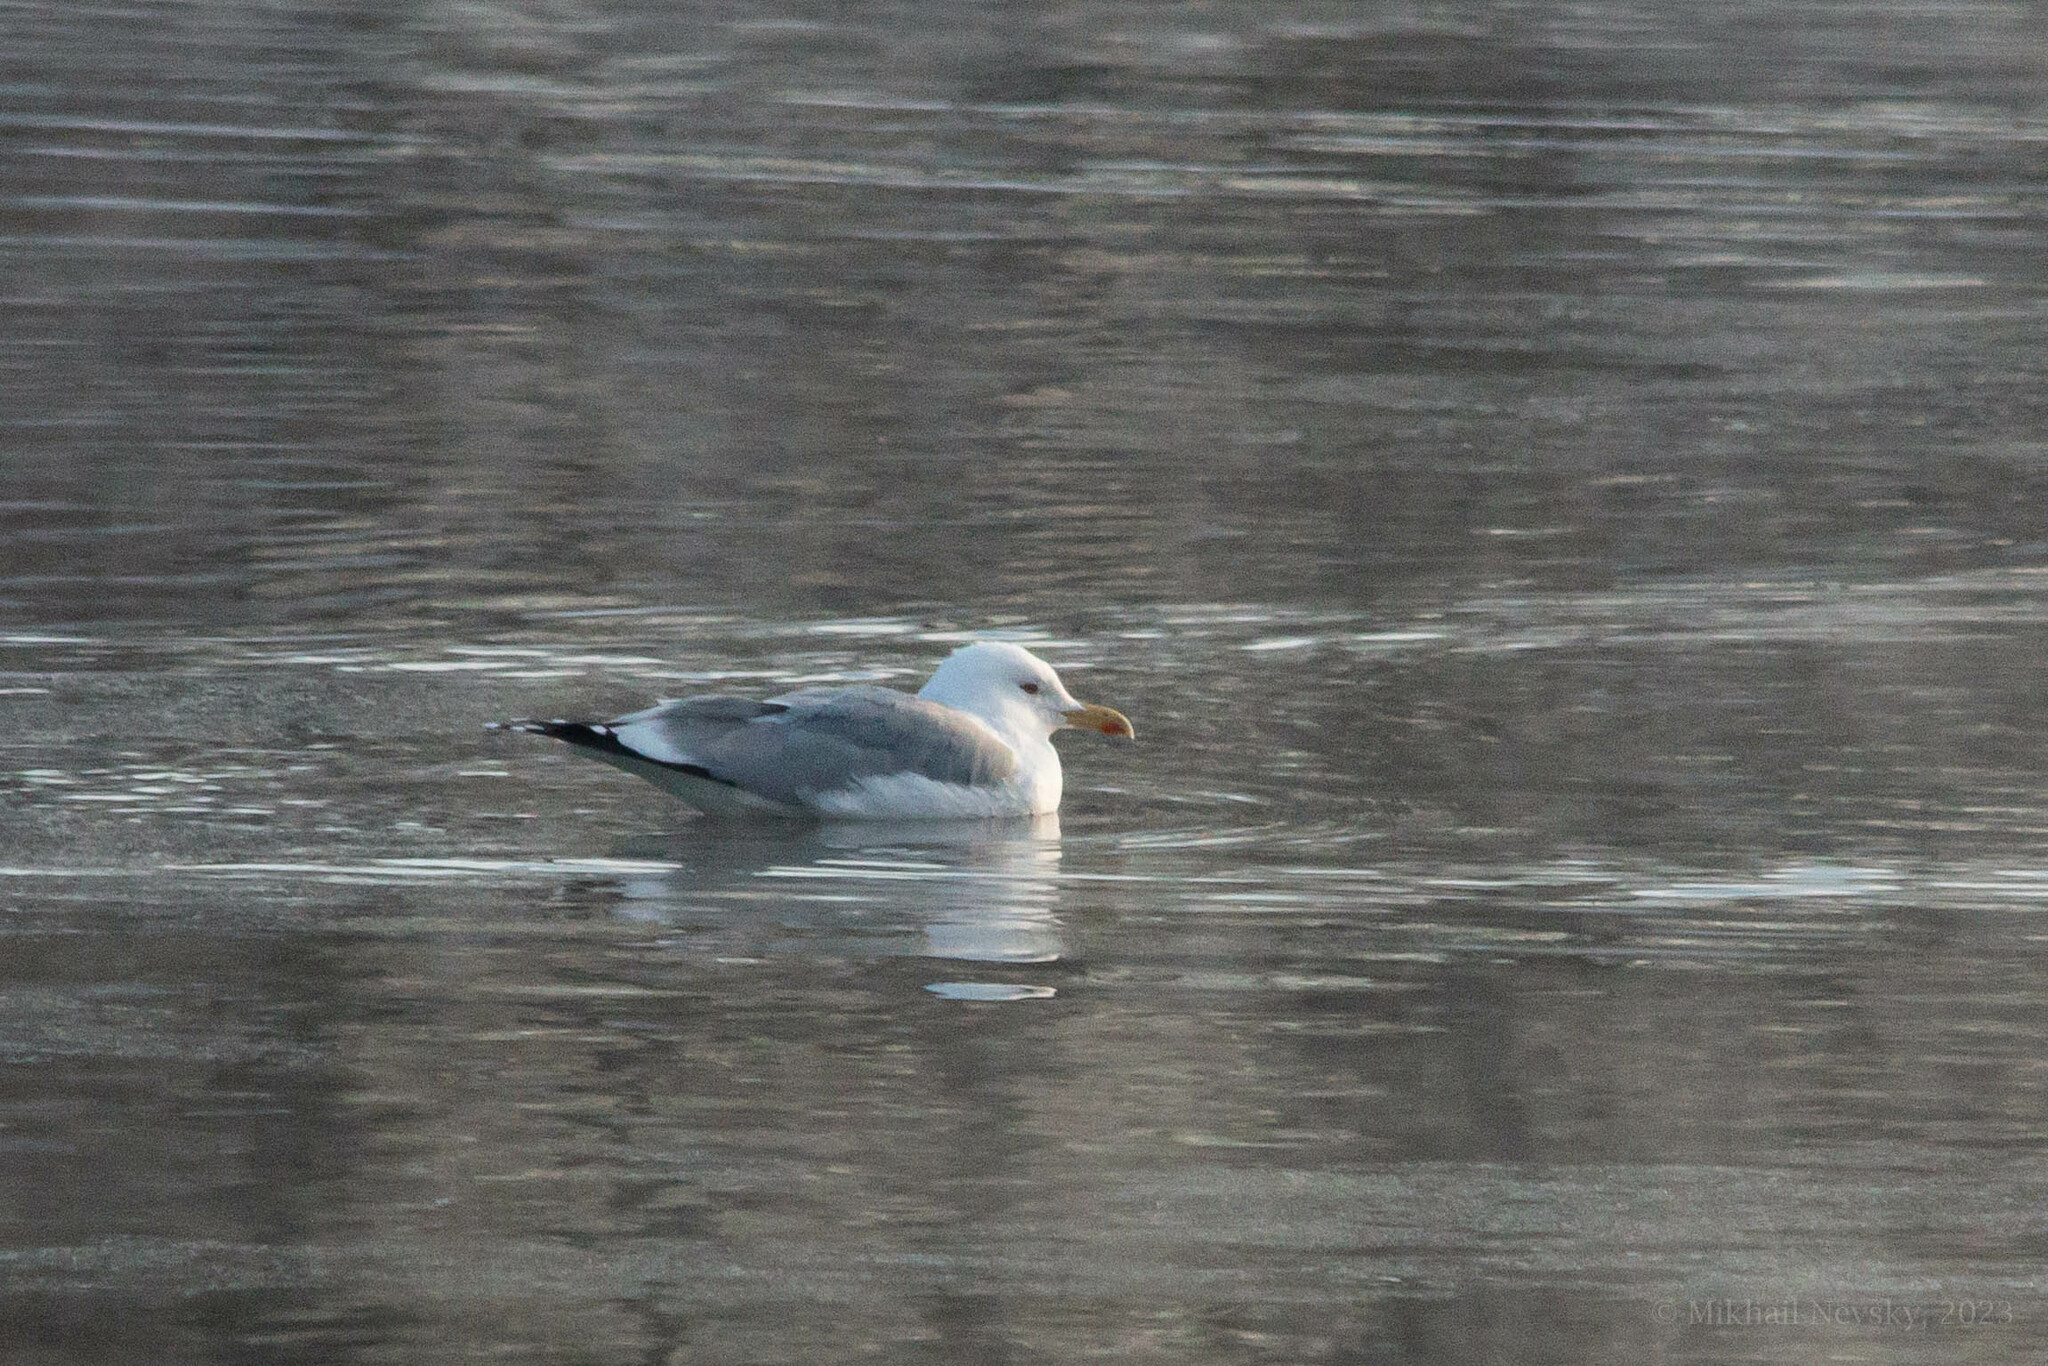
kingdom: Animalia
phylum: Chordata
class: Aves
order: Charadriiformes
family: Laridae
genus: Larus
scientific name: Larus cachinnans
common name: Caspian gull
